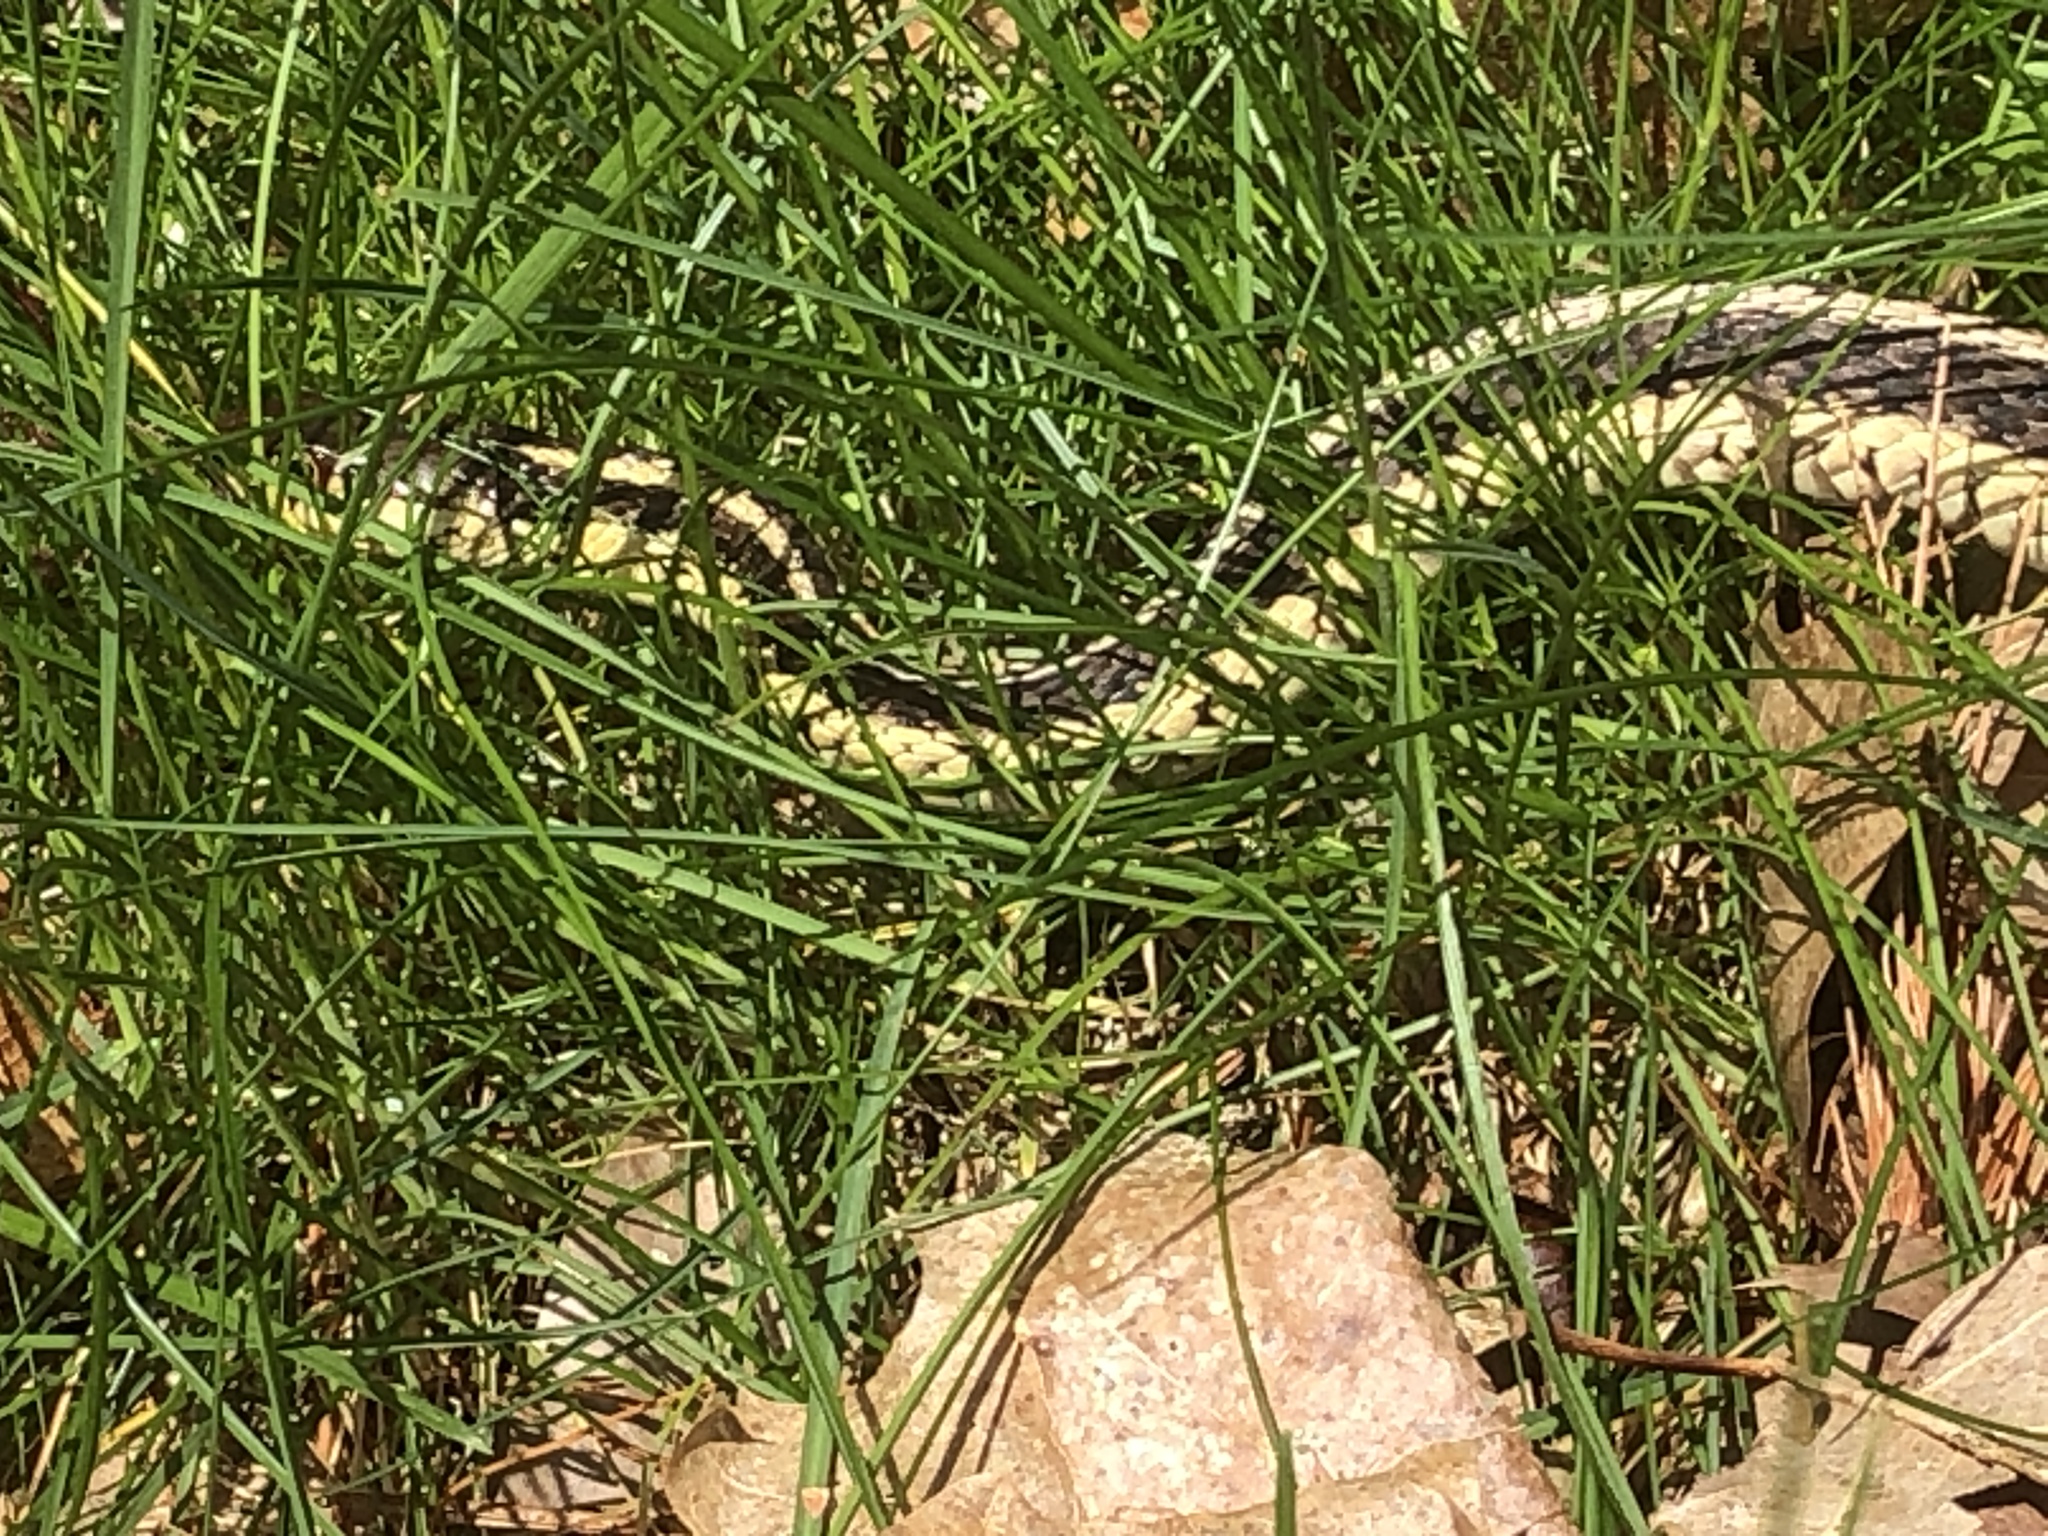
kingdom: Animalia
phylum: Chordata
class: Squamata
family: Colubridae
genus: Thamnophis
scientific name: Thamnophis sirtalis
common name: Common garter snake
